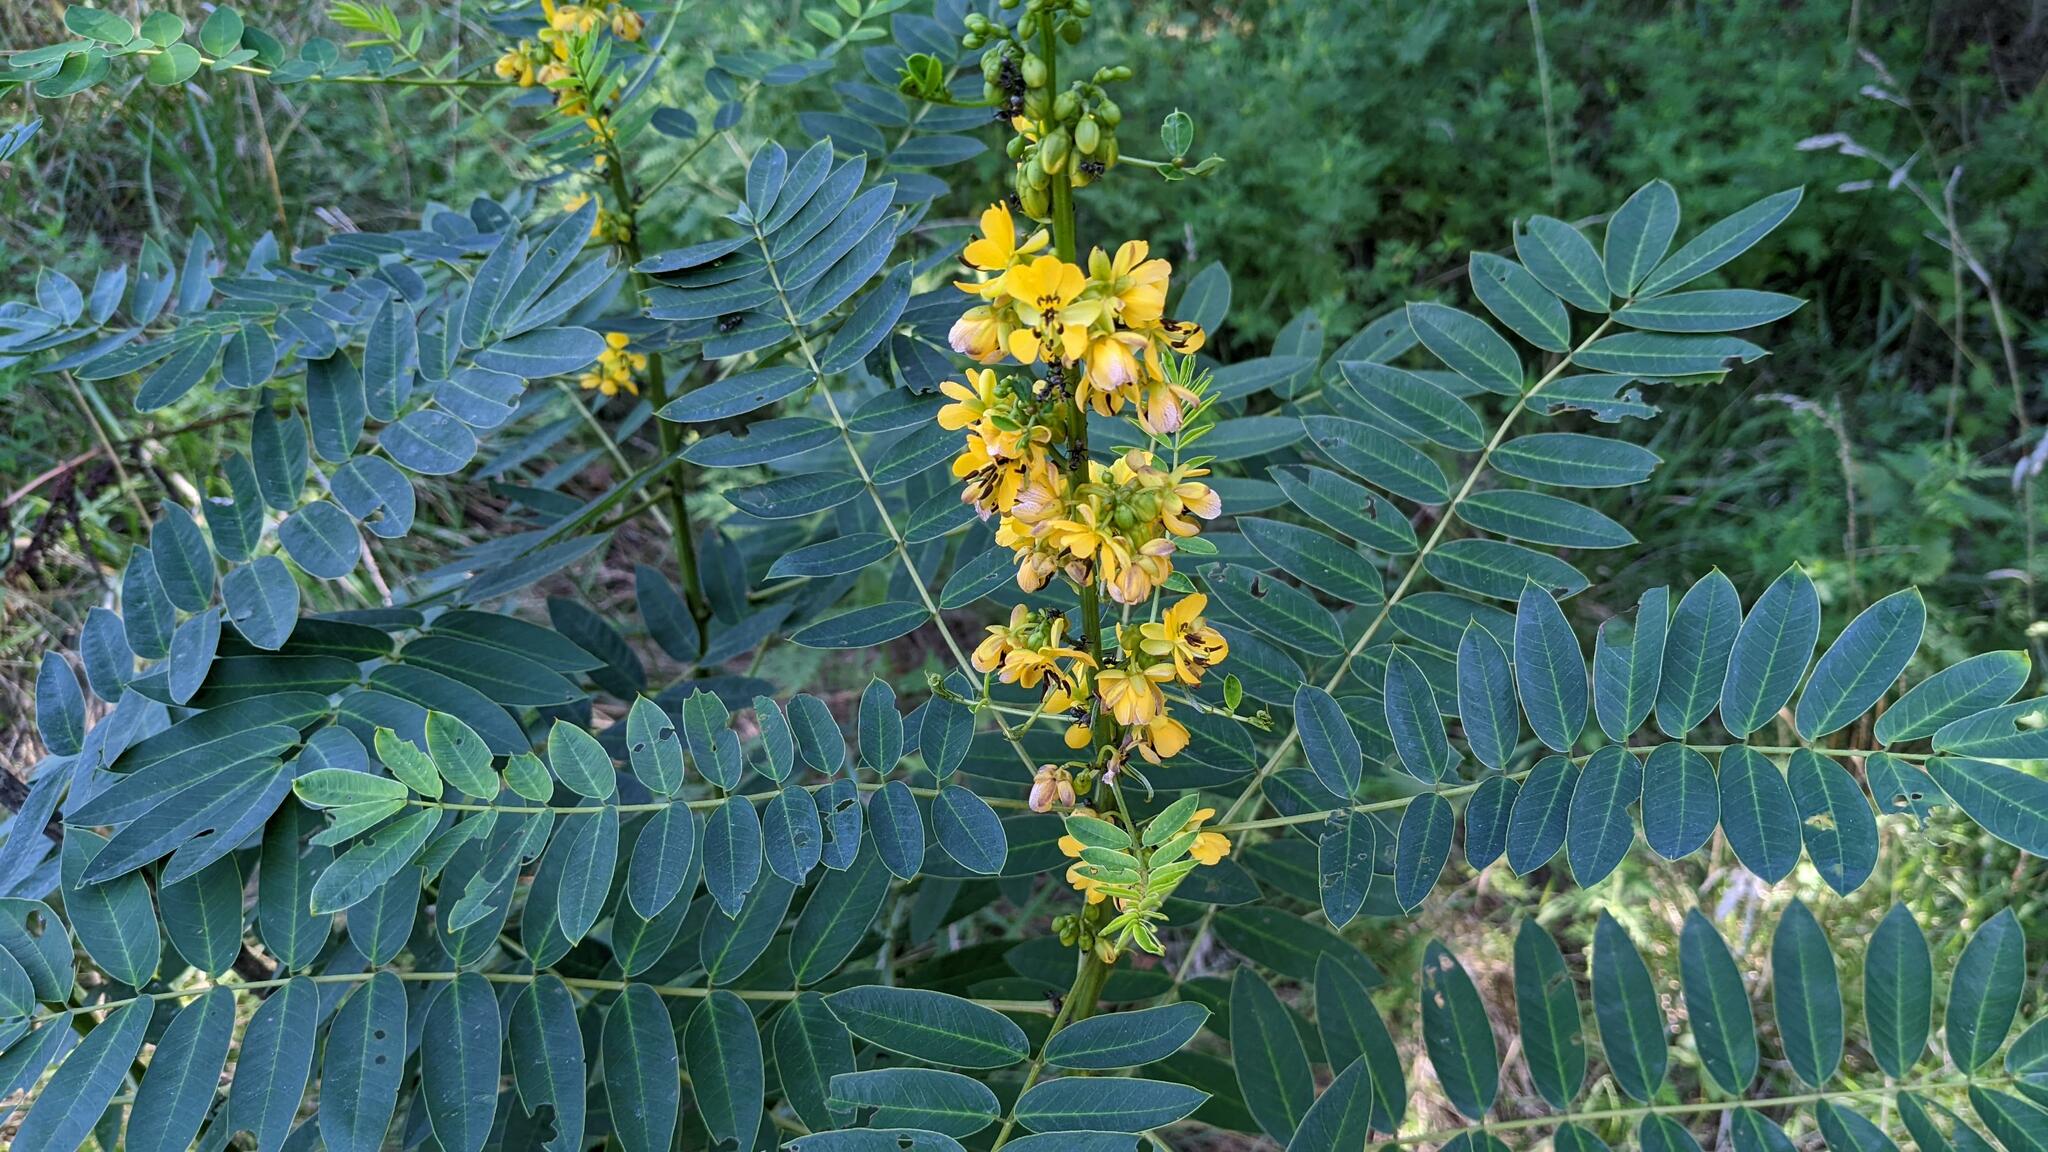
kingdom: Plantae
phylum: Tracheophyta
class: Magnoliopsida
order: Fabales
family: Fabaceae
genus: Senna
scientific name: Senna marilandica
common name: American senna
